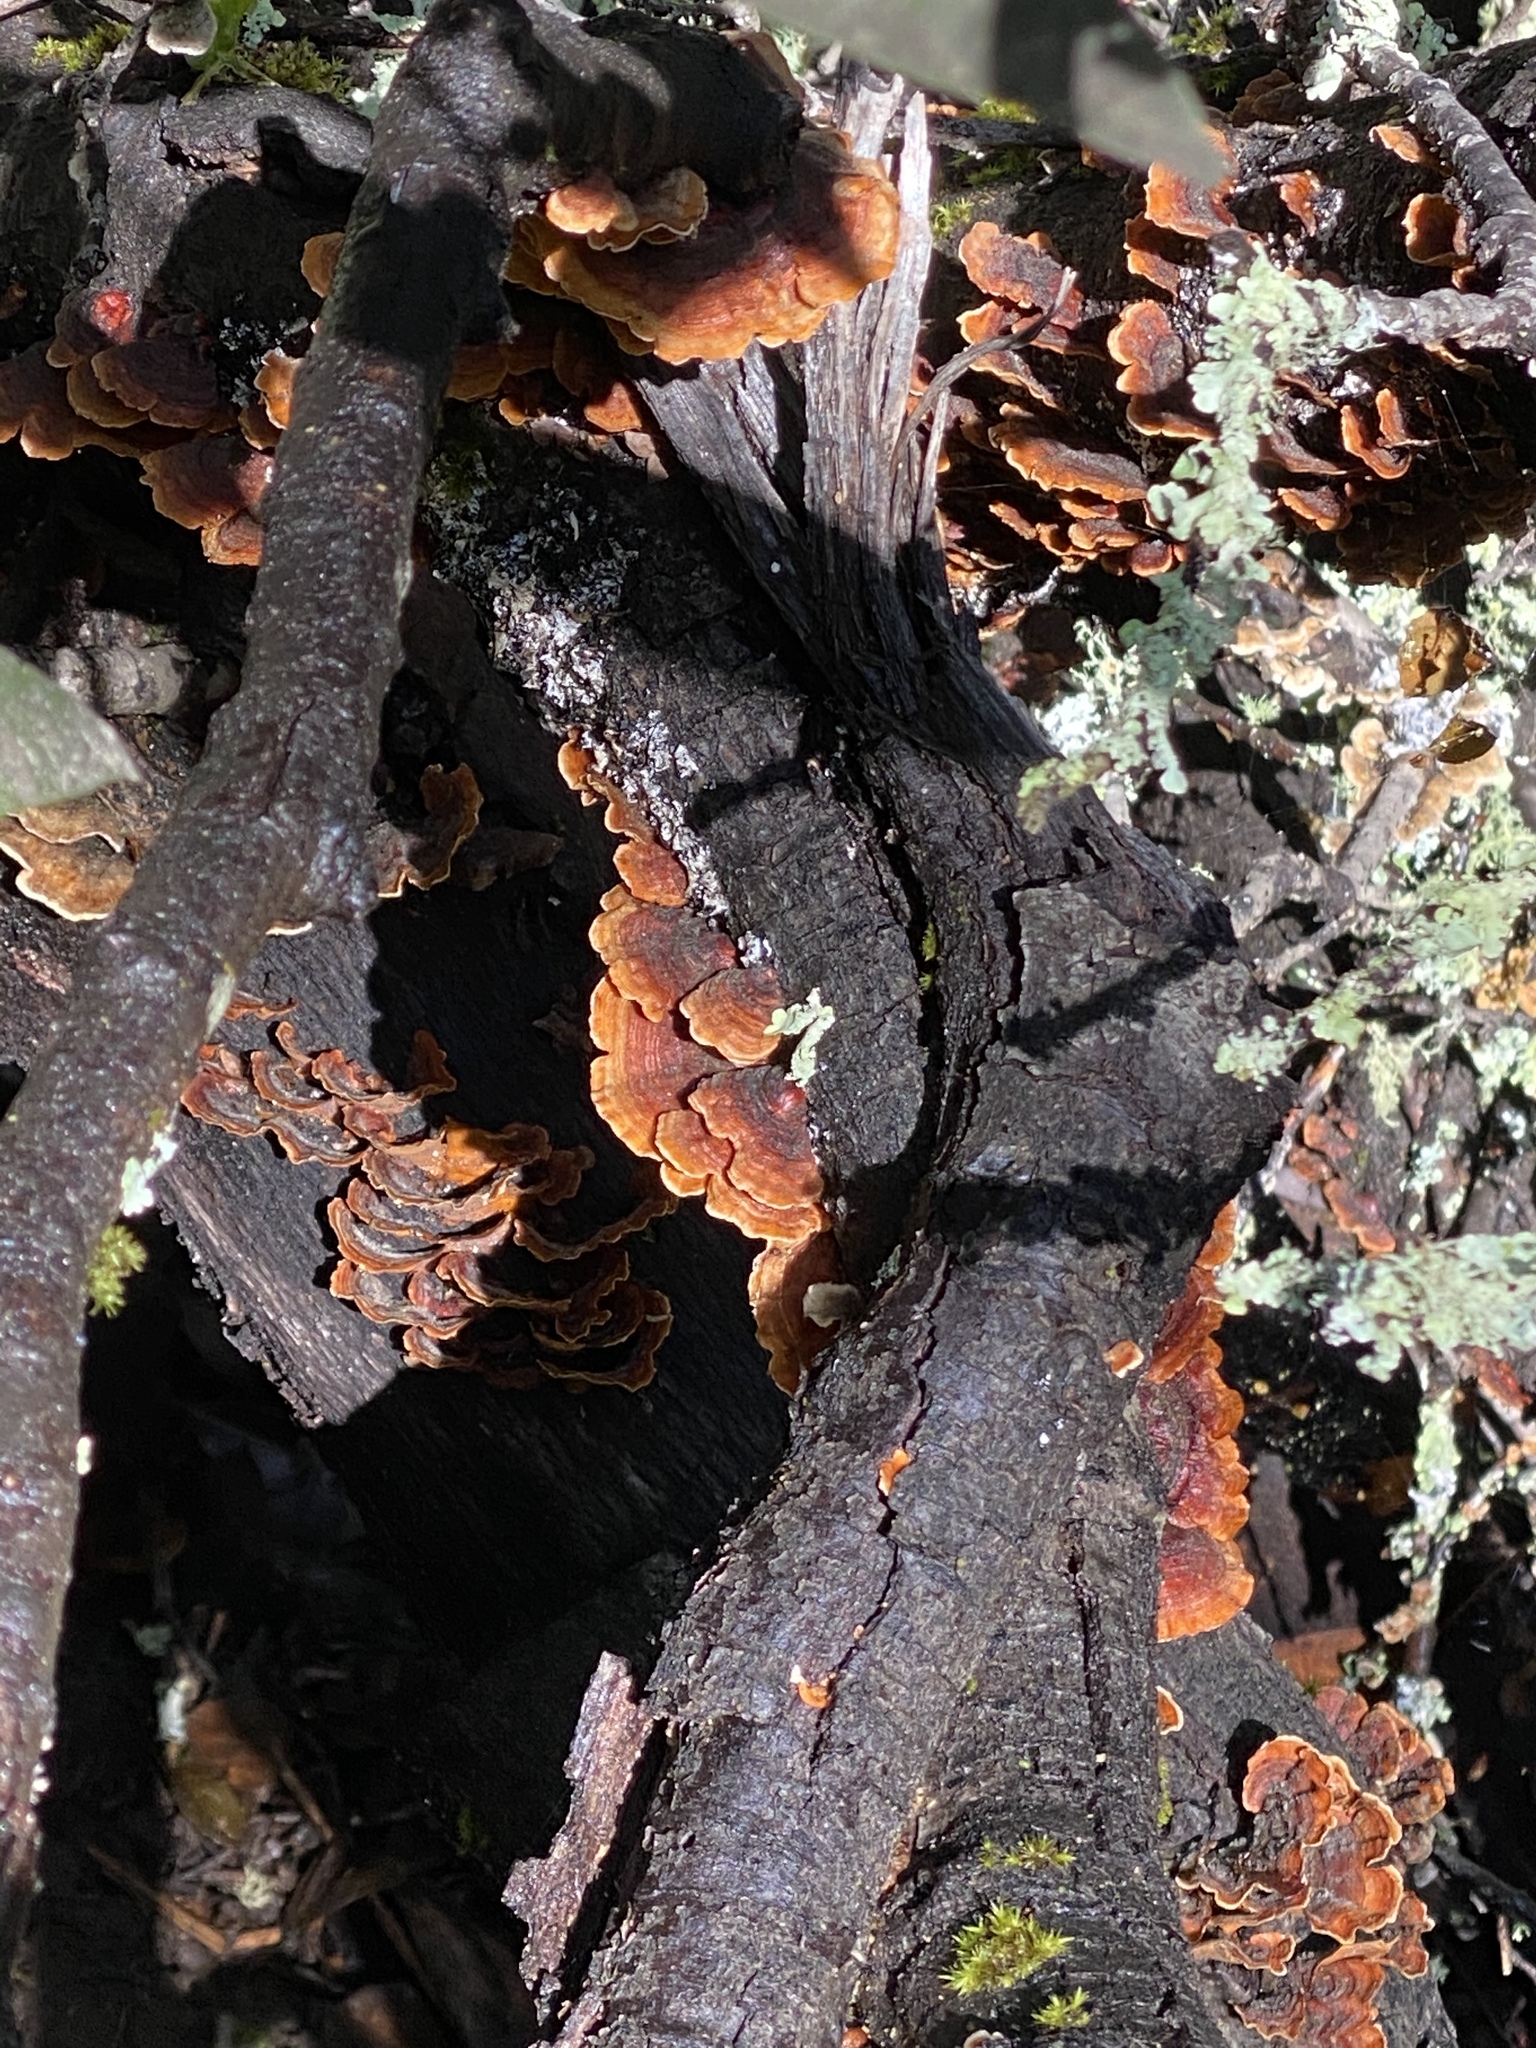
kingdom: Fungi
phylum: Basidiomycota
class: Agaricomycetes
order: Russulales
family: Stereaceae
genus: Stereum
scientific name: Stereum hirsutum
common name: Hairy curtain crust
